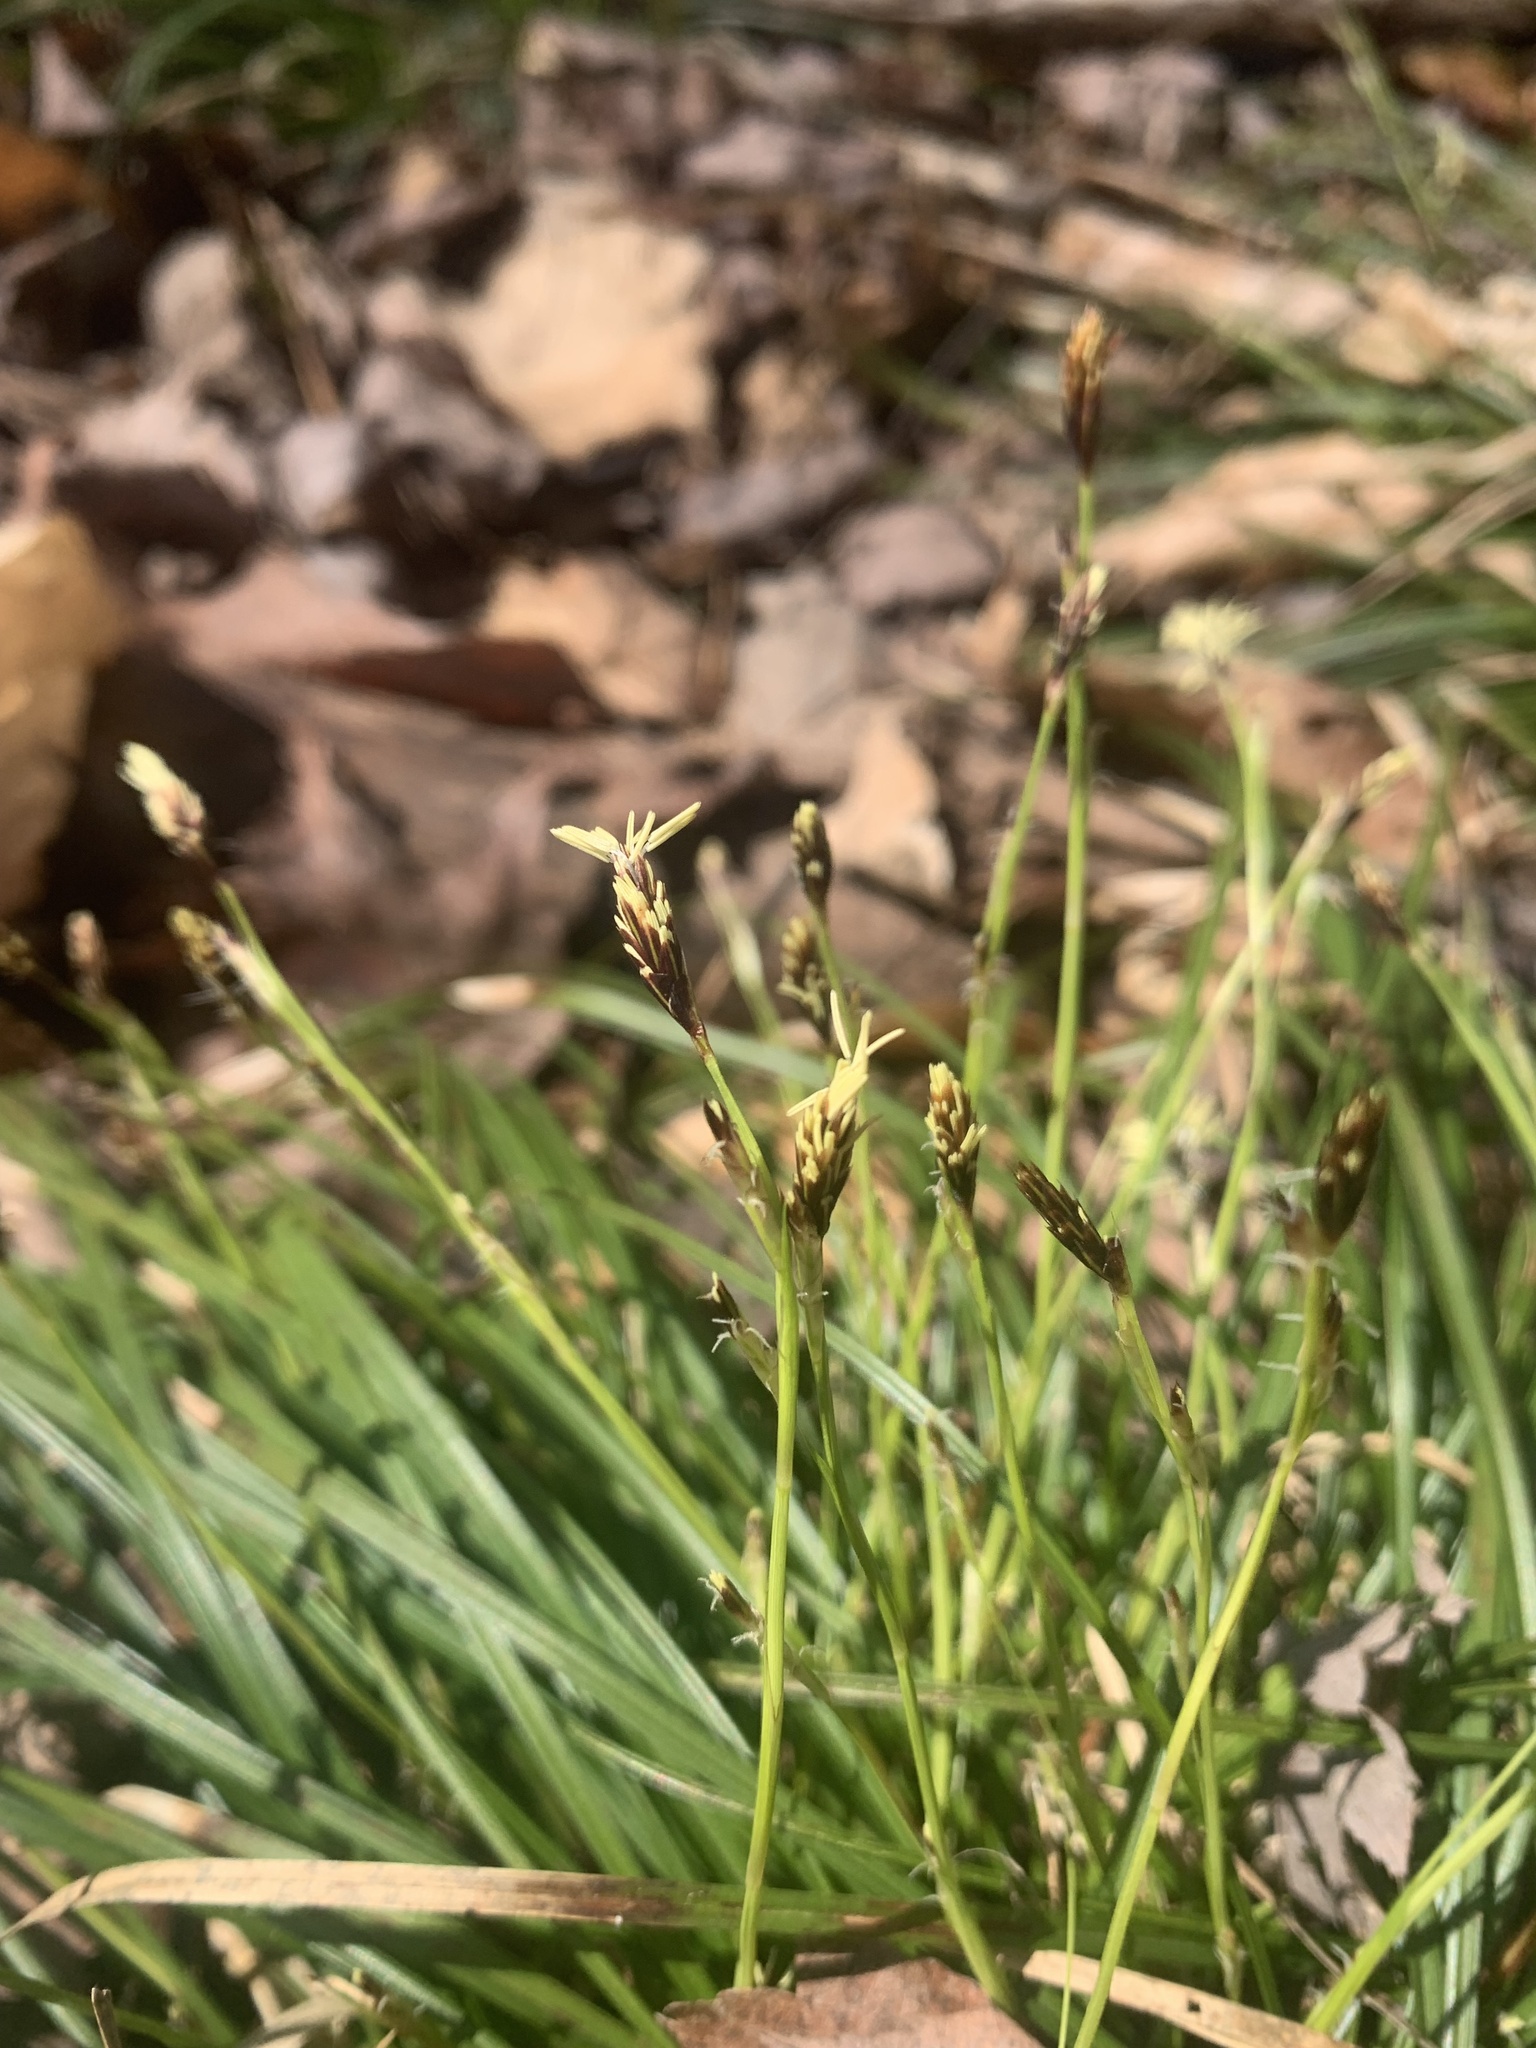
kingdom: Plantae
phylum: Tracheophyta
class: Liliopsida
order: Poales
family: Cyperaceae
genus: Carex
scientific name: Carex pedunculata
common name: Pedunculate sedge
